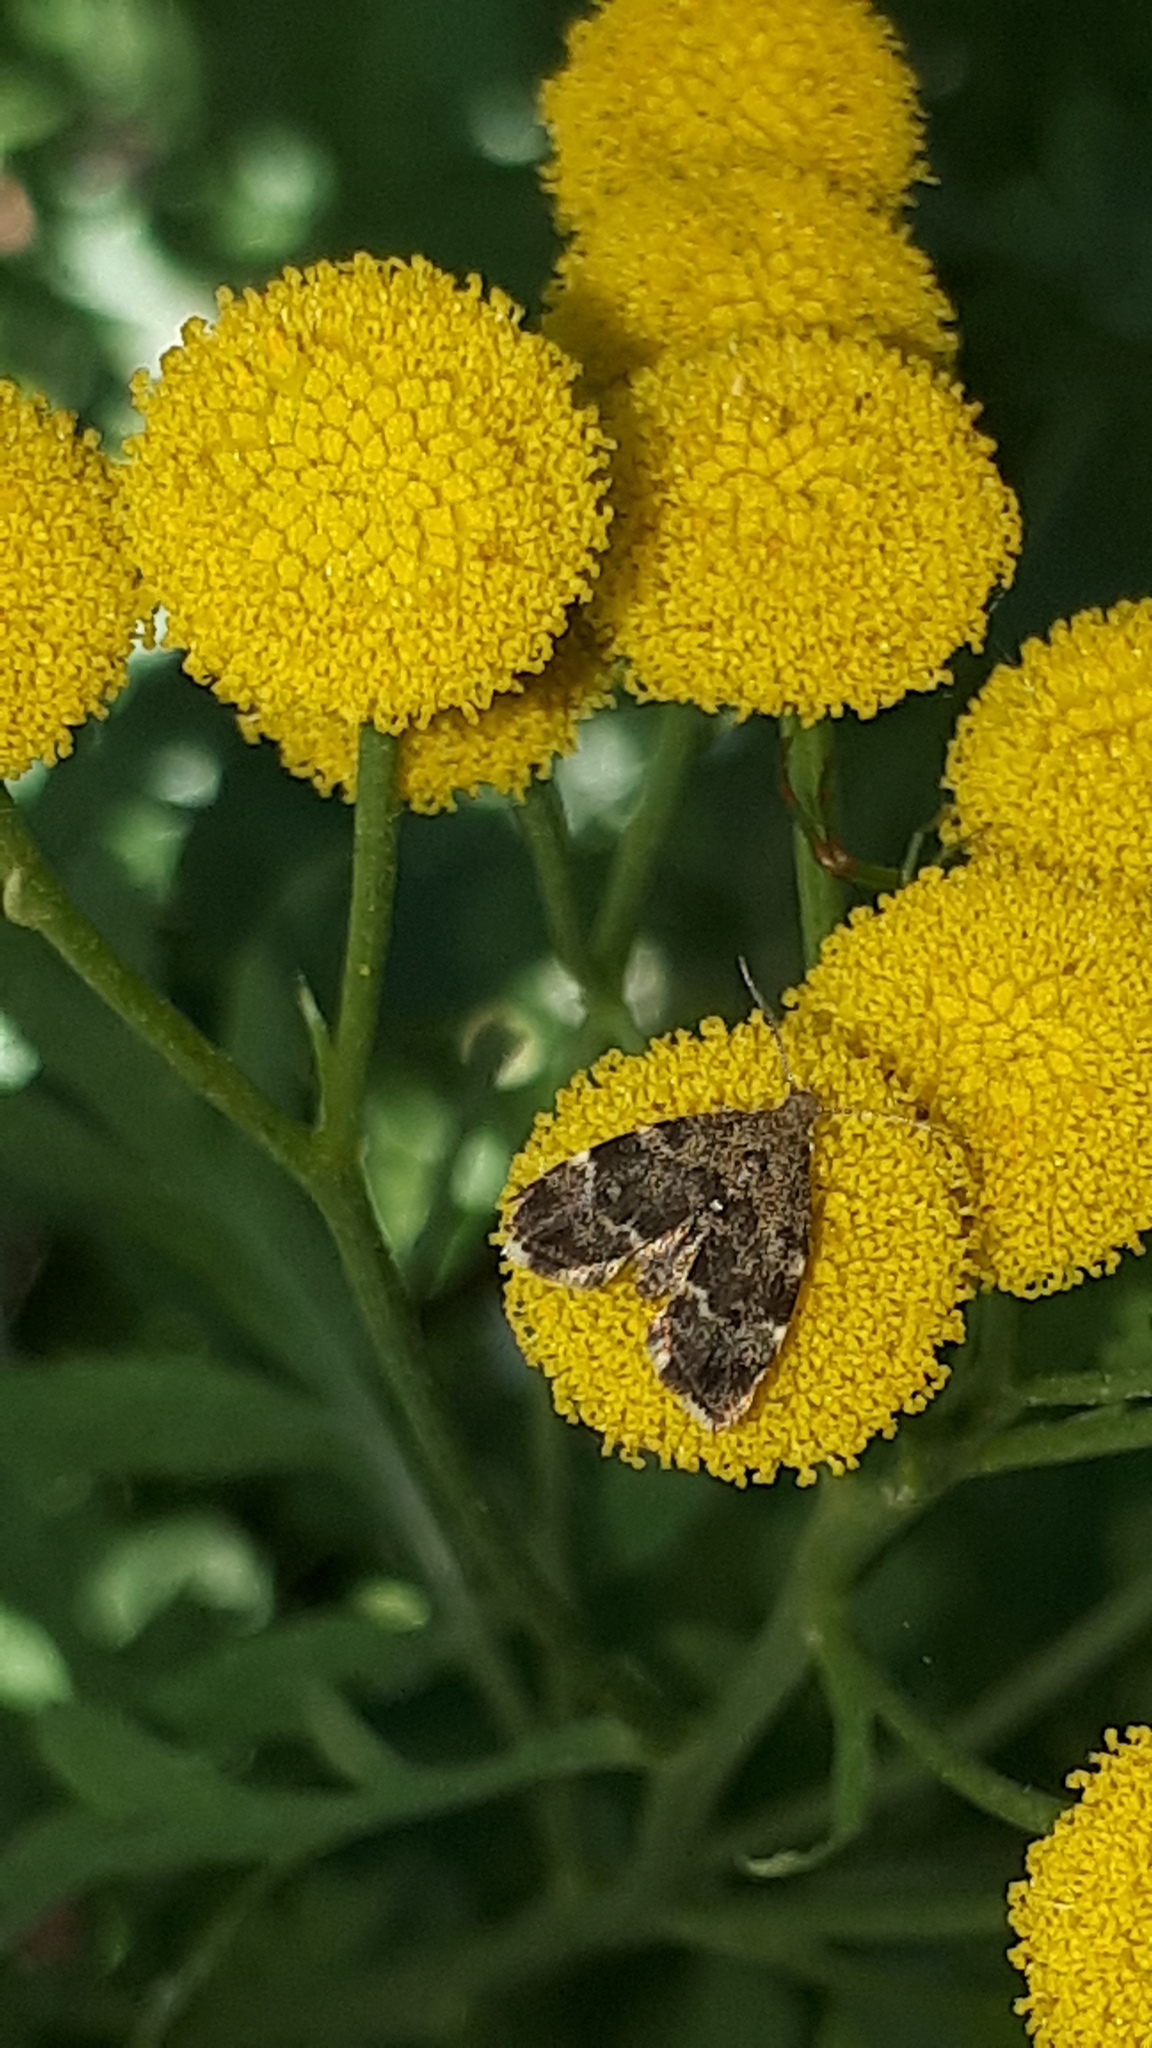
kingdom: Animalia
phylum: Arthropoda
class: Insecta
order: Lepidoptera
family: Choreutidae
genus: Anthophila
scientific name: Anthophila fabriciana
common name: Nettle-tap
